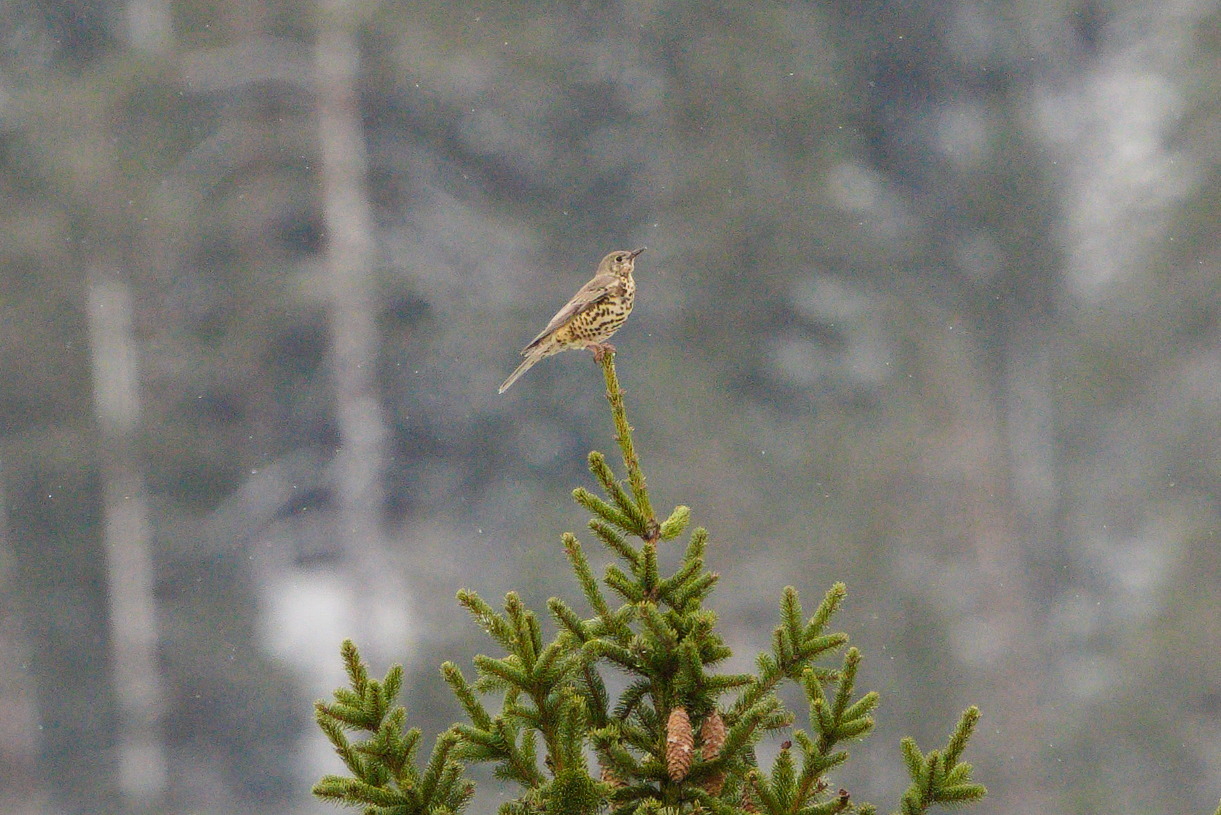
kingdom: Animalia
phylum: Chordata
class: Aves
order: Passeriformes
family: Turdidae
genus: Turdus
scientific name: Turdus viscivorus
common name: Mistle thrush
